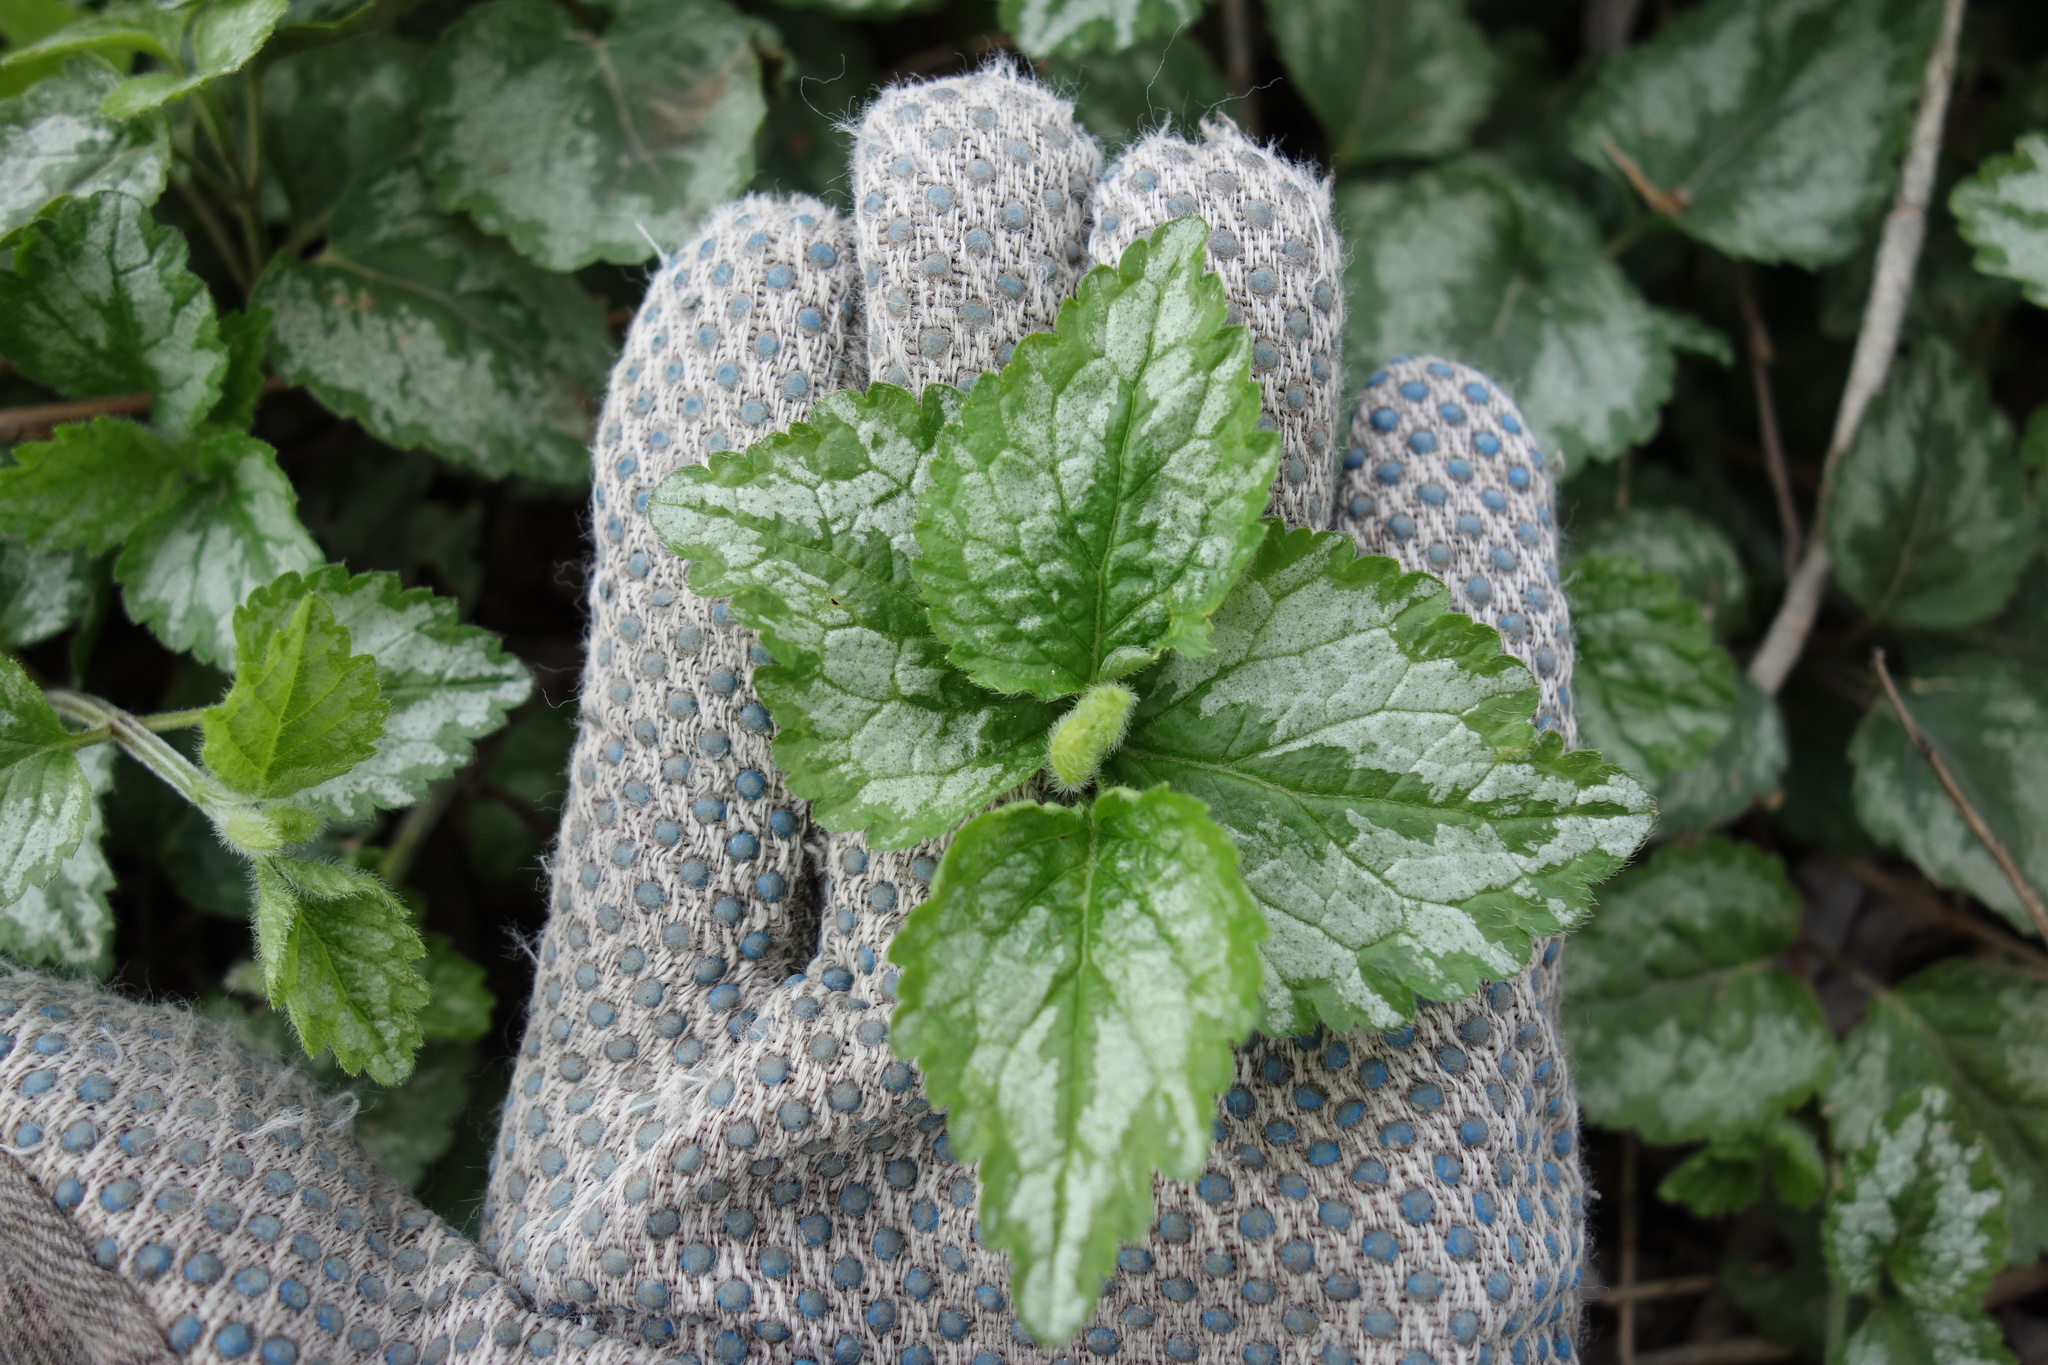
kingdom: Plantae
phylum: Tracheophyta
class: Magnoliopsida
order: Lamiales
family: Lamiaceae
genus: Lamium
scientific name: Lamium galeobdolon
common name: Yellow archangel
